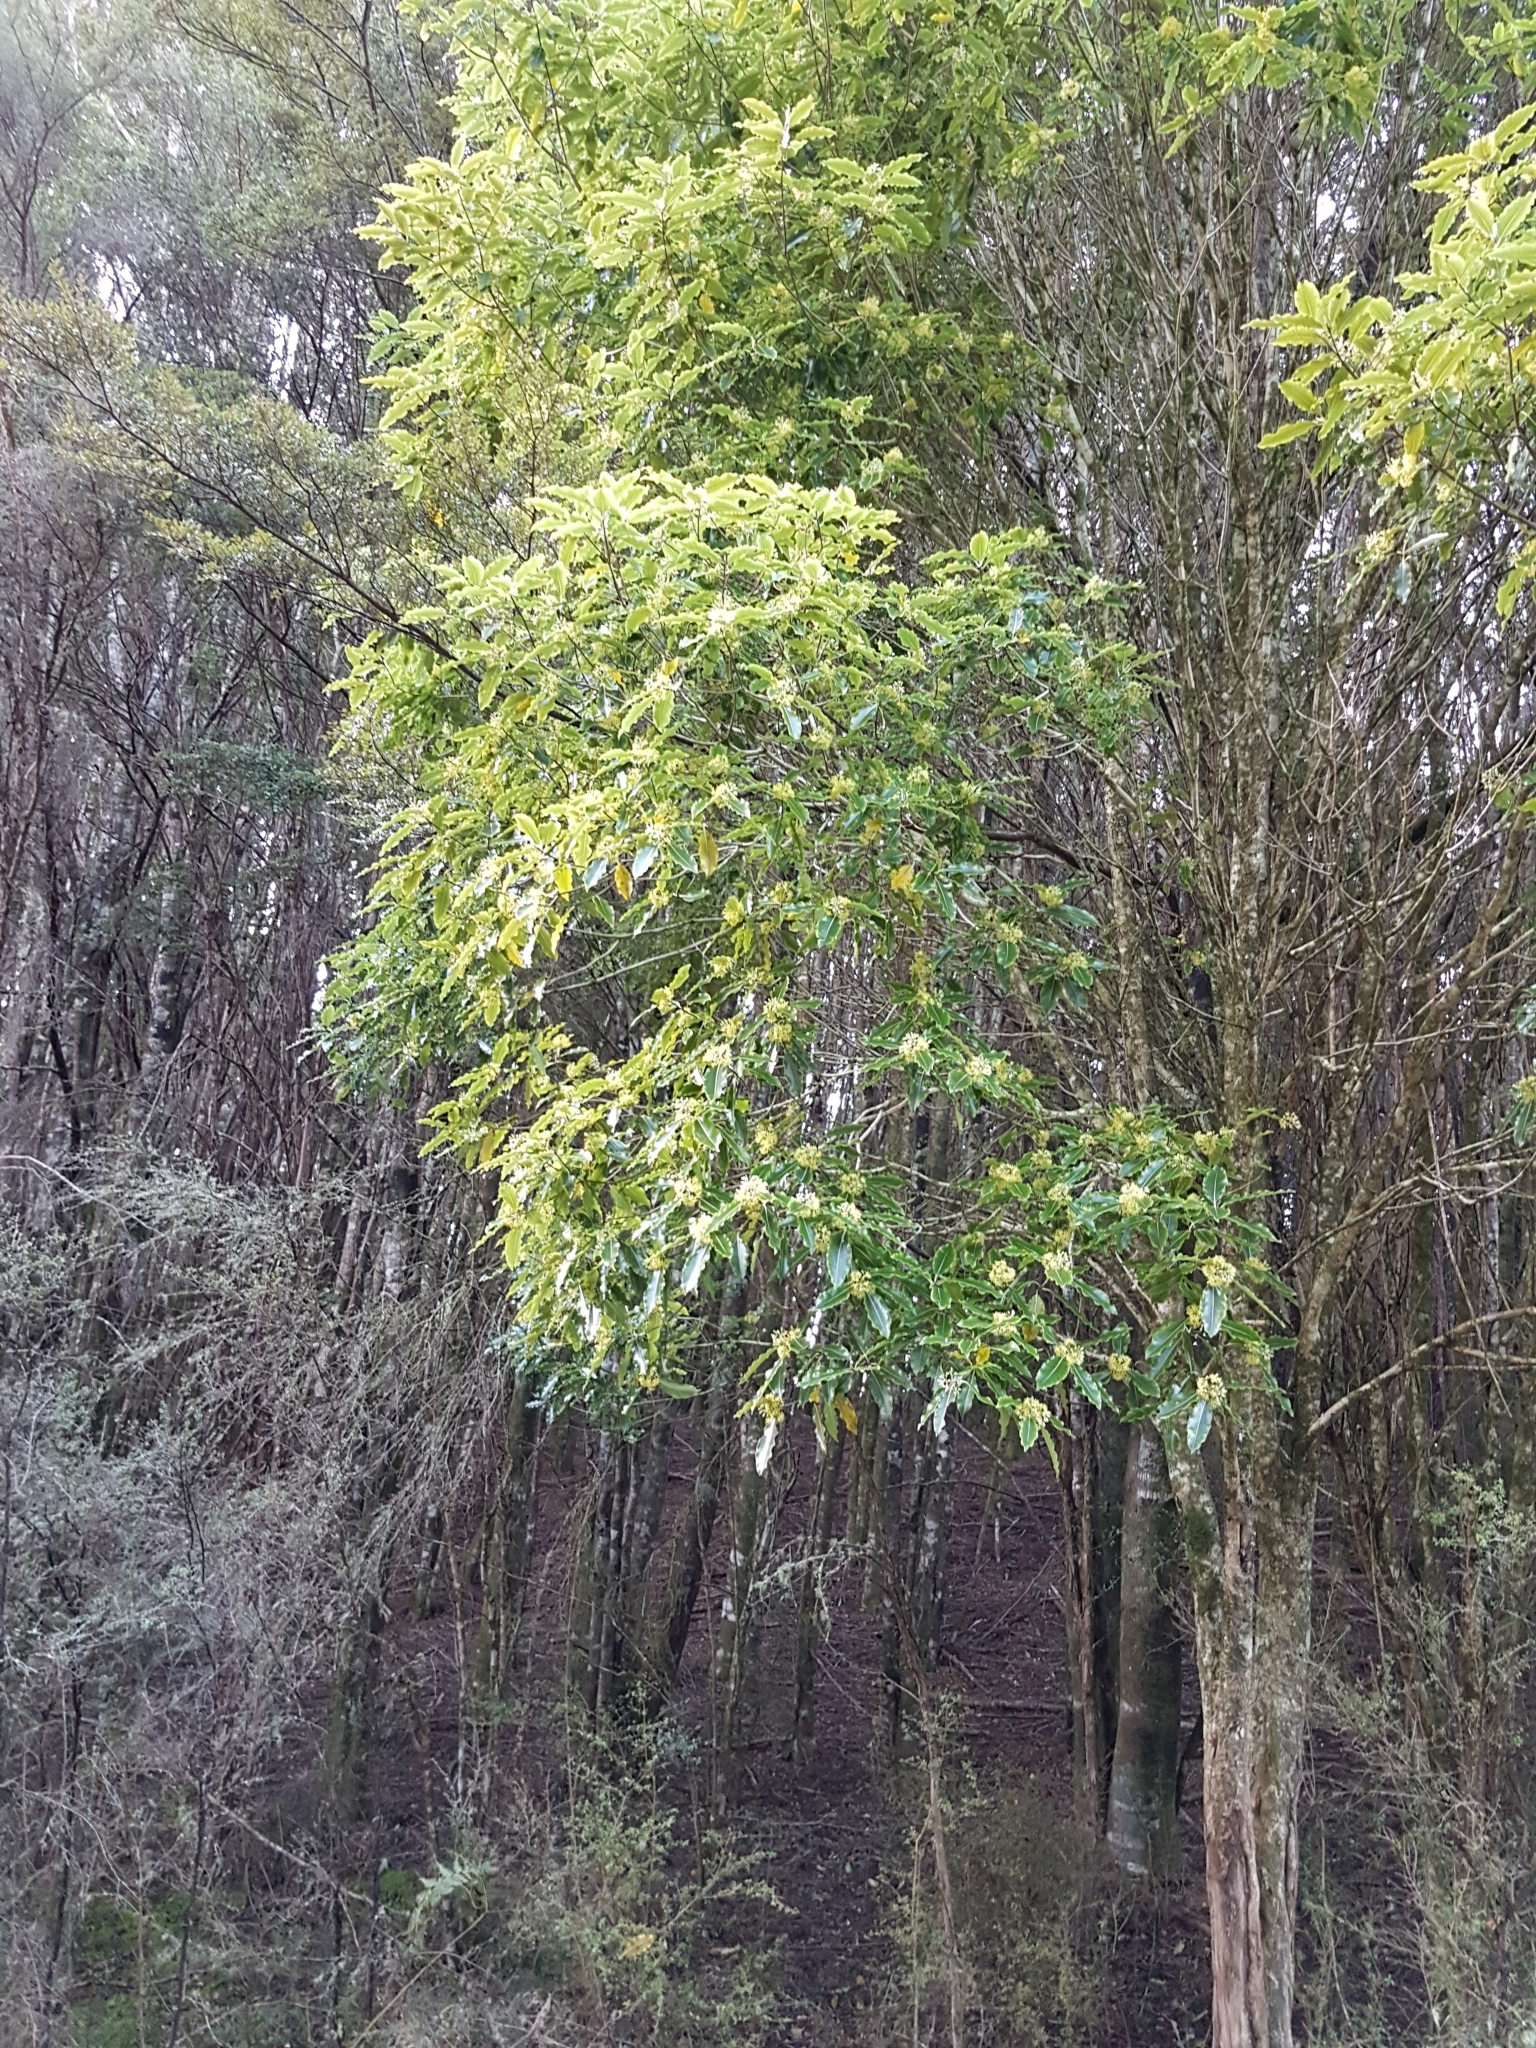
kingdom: Plantae
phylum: Tracheophyta
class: Magnoliopsida
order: Apiales
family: Pittosporaceae
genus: Pittosporum
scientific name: Pittosporum eugenioides
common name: Lemonwood
